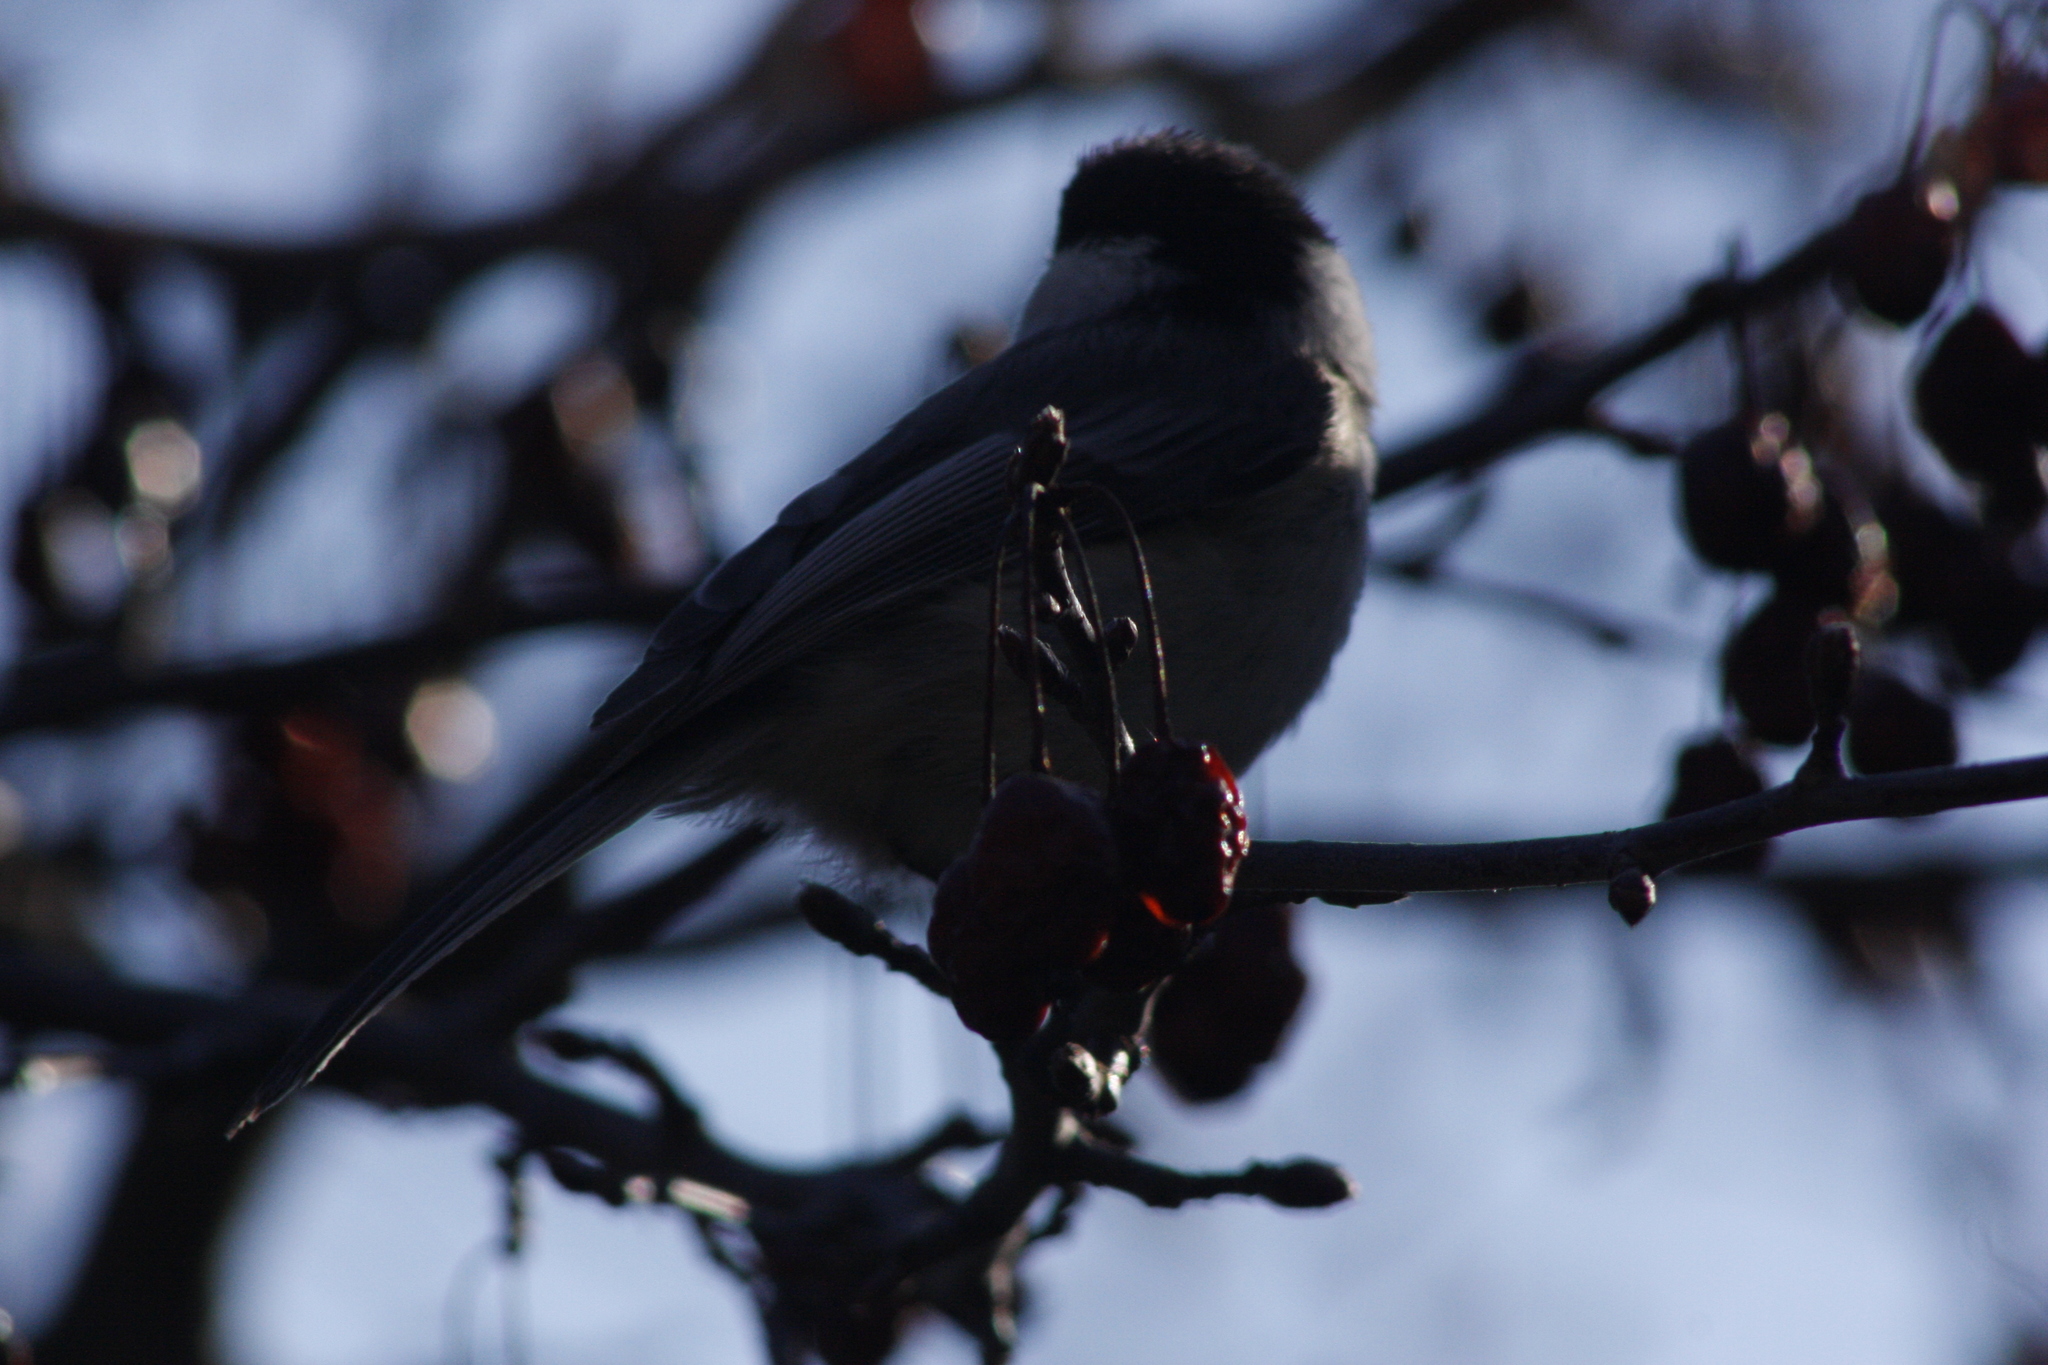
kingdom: Animalia
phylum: Chordata
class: Aves
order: Passeriformes
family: Paridae
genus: Poecile
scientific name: Poecile atricapillus
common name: Black-capped chickadee
